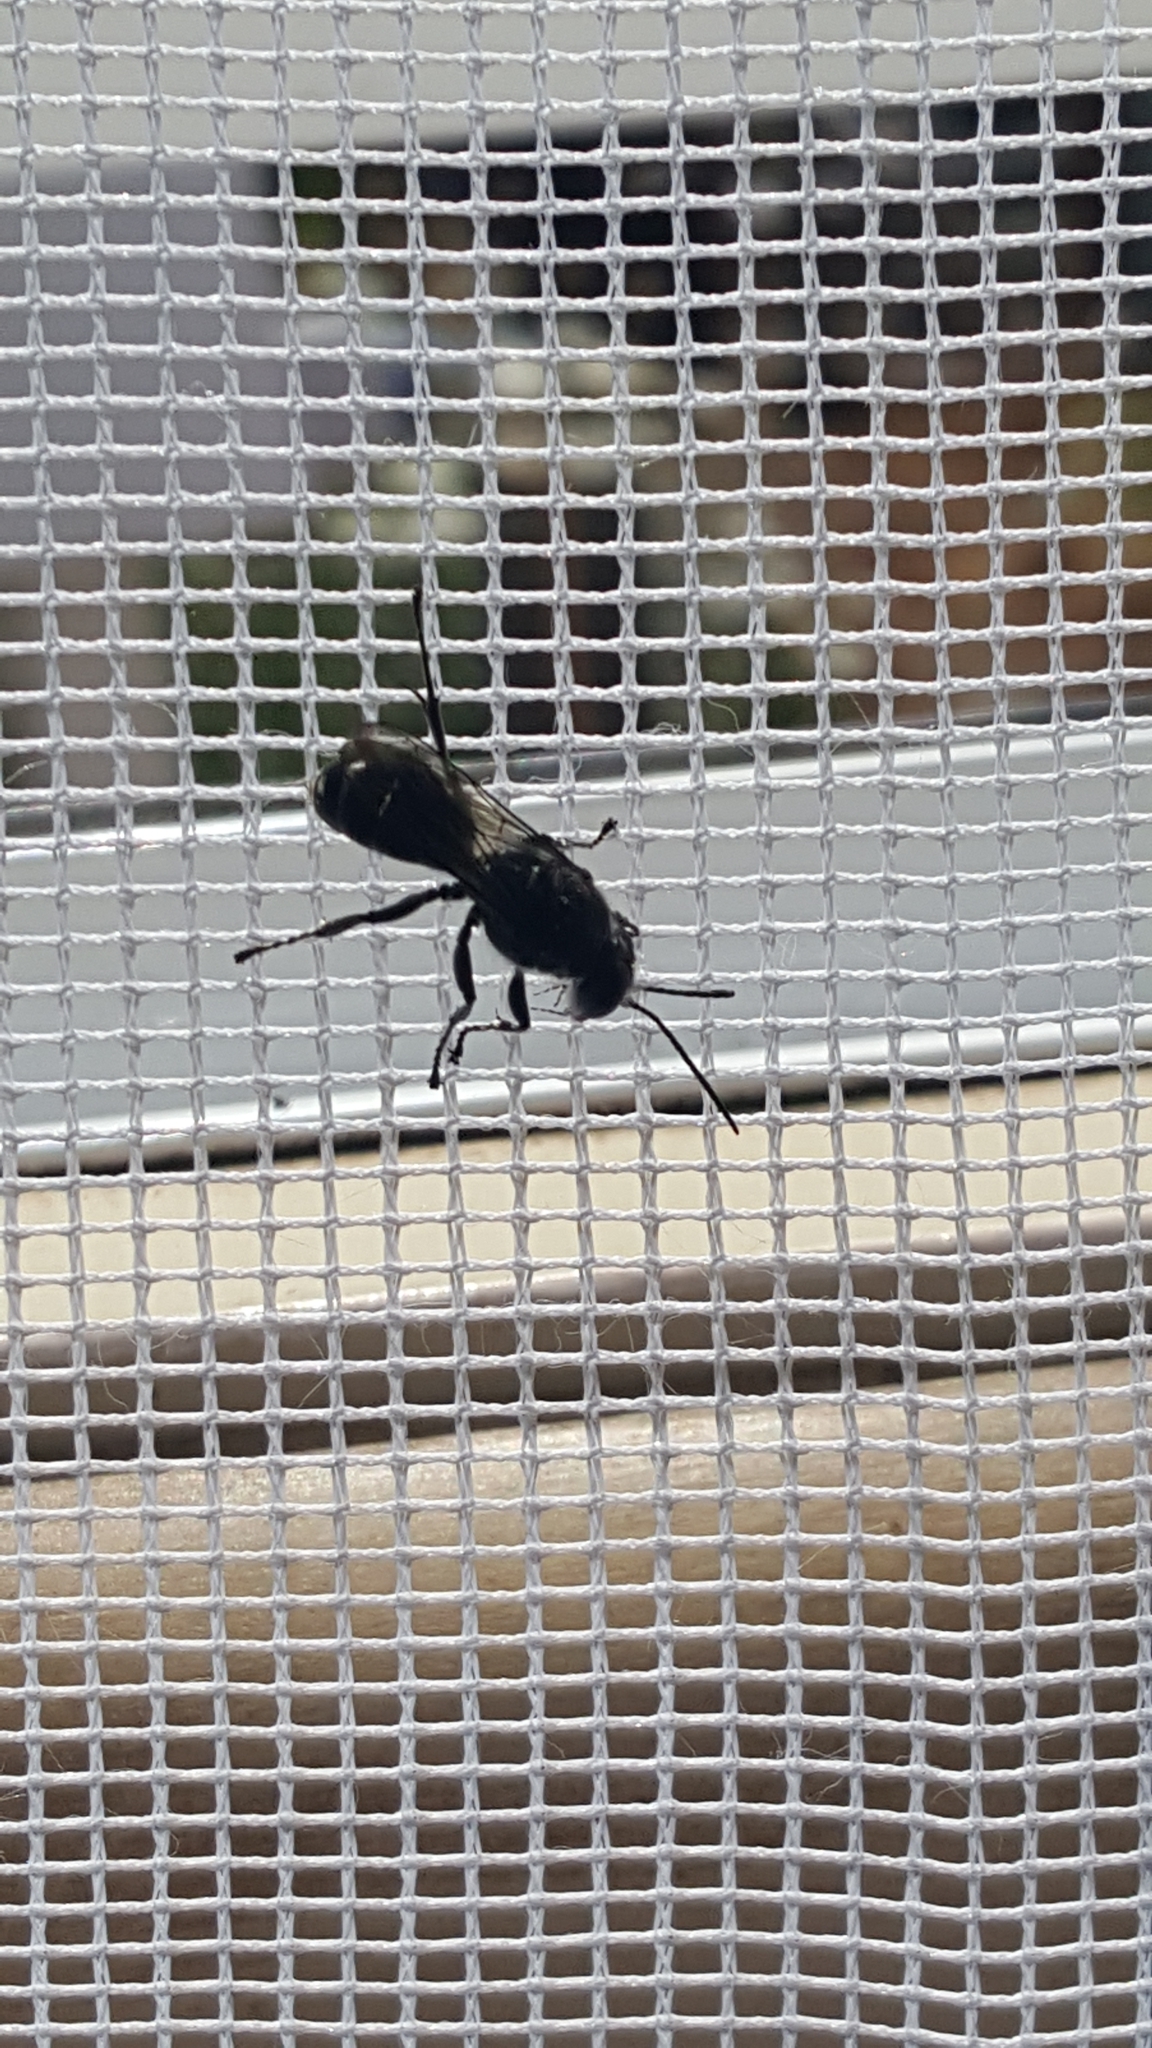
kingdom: Animalia
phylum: Arthropoda
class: Insecta
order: Hymenoptera
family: Crabronidae
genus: Pison
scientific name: Pison spinolae
